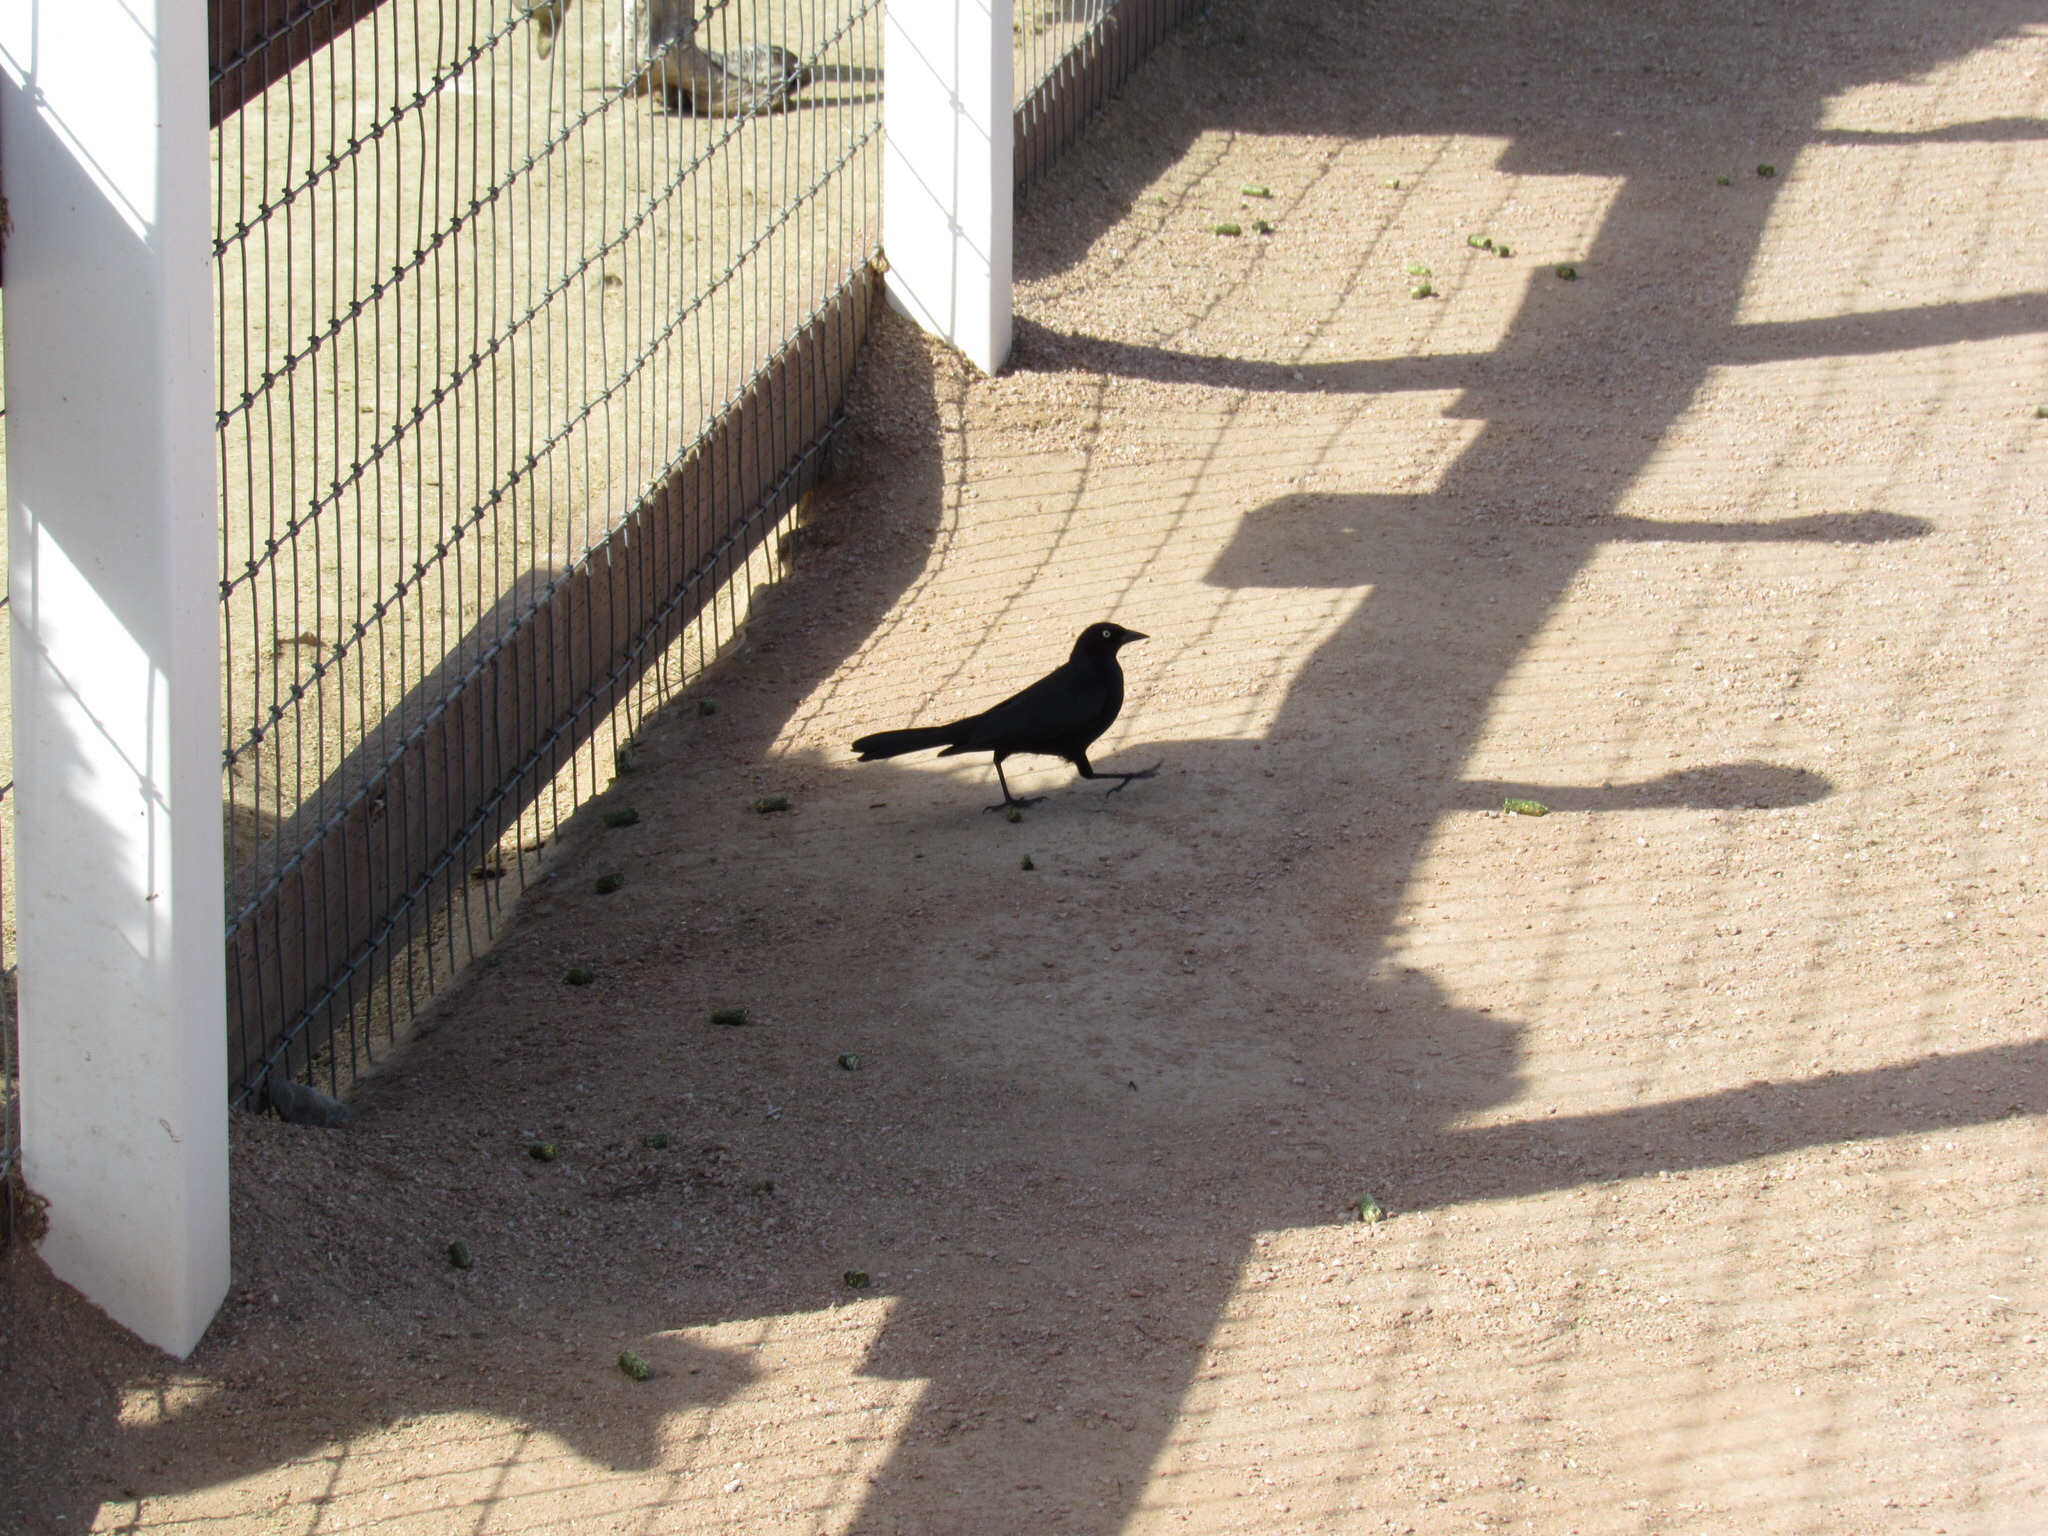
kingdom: Animalia
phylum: Chordata
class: Aves
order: Passeriformes
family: Icteridae
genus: Euphagus
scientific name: Euphagus cyanocephalus
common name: Brewer's blackbird
